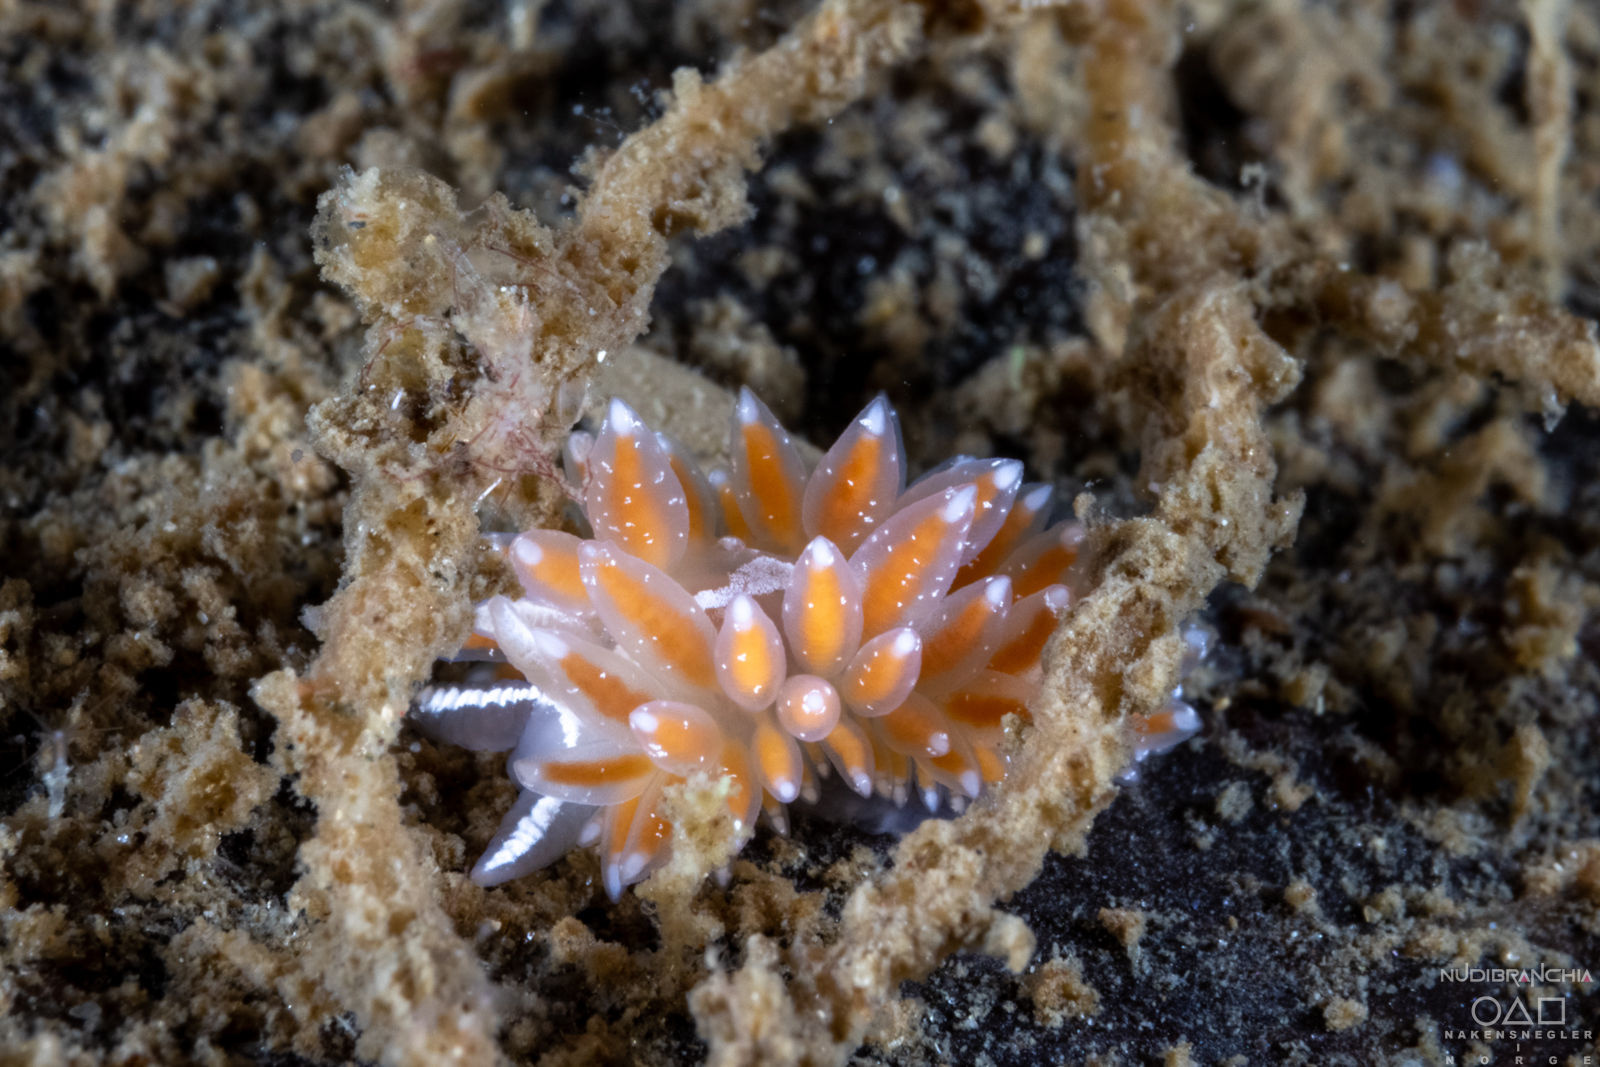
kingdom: Animalia
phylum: Mollusca
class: Gastropoda
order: Nudibranchia
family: Coryphellidae
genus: Coryphella
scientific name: Coryphella monicae
